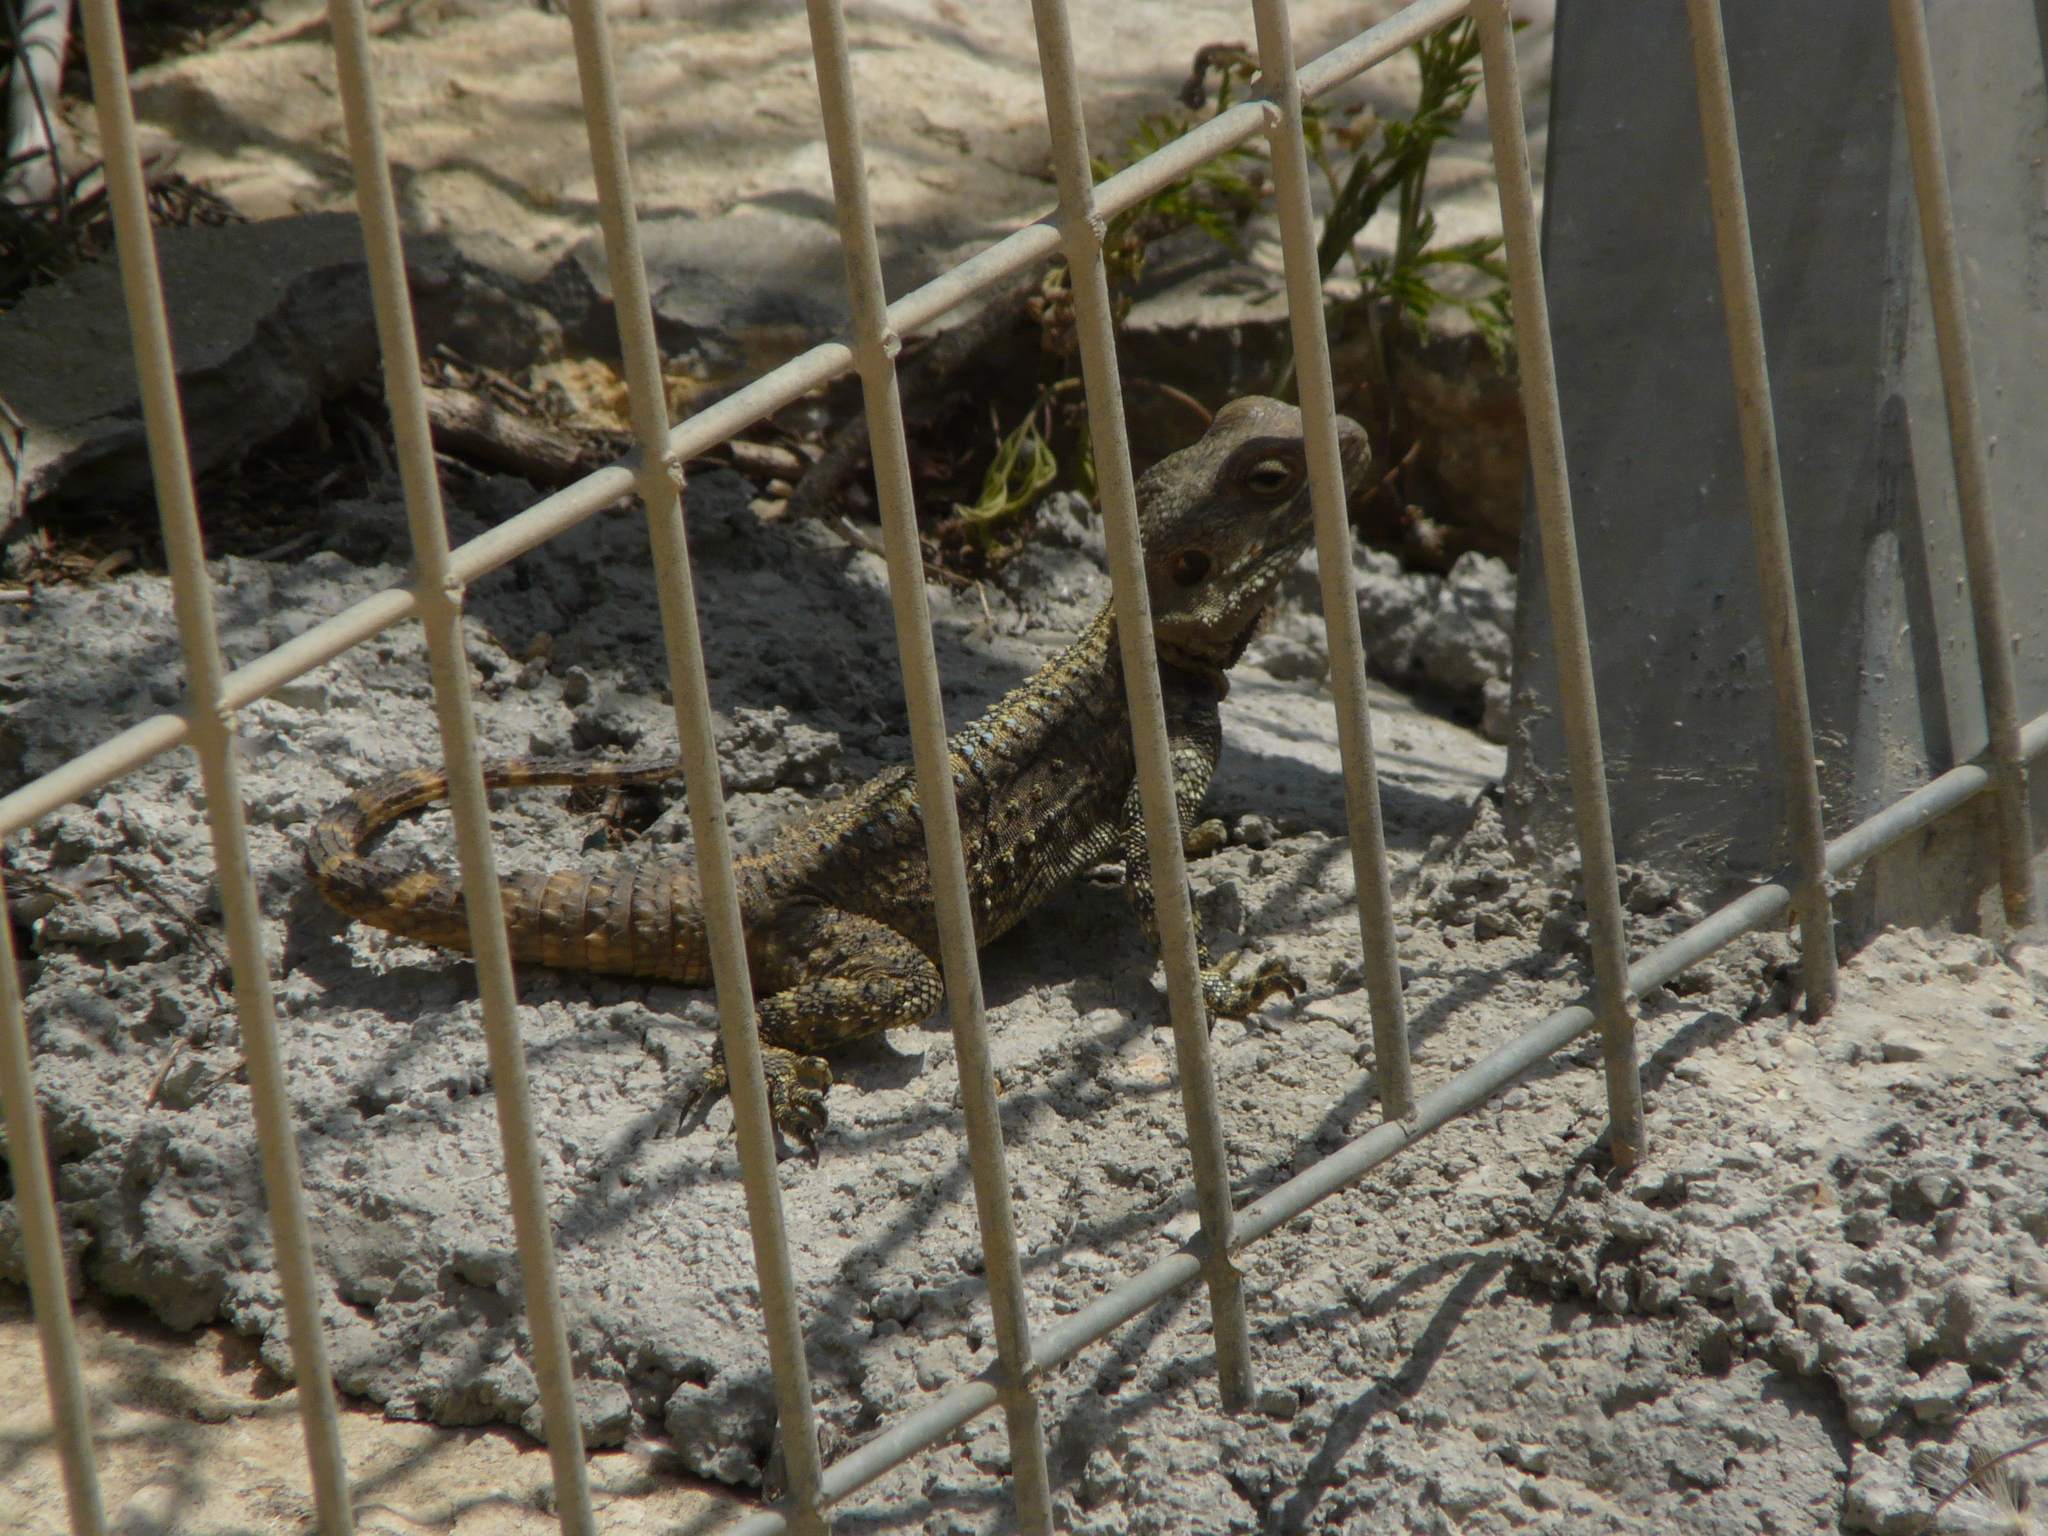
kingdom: Animalia
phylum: Chordata
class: Squamata
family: Agamidae
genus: Laudakia
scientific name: Laudakia vulgaris
